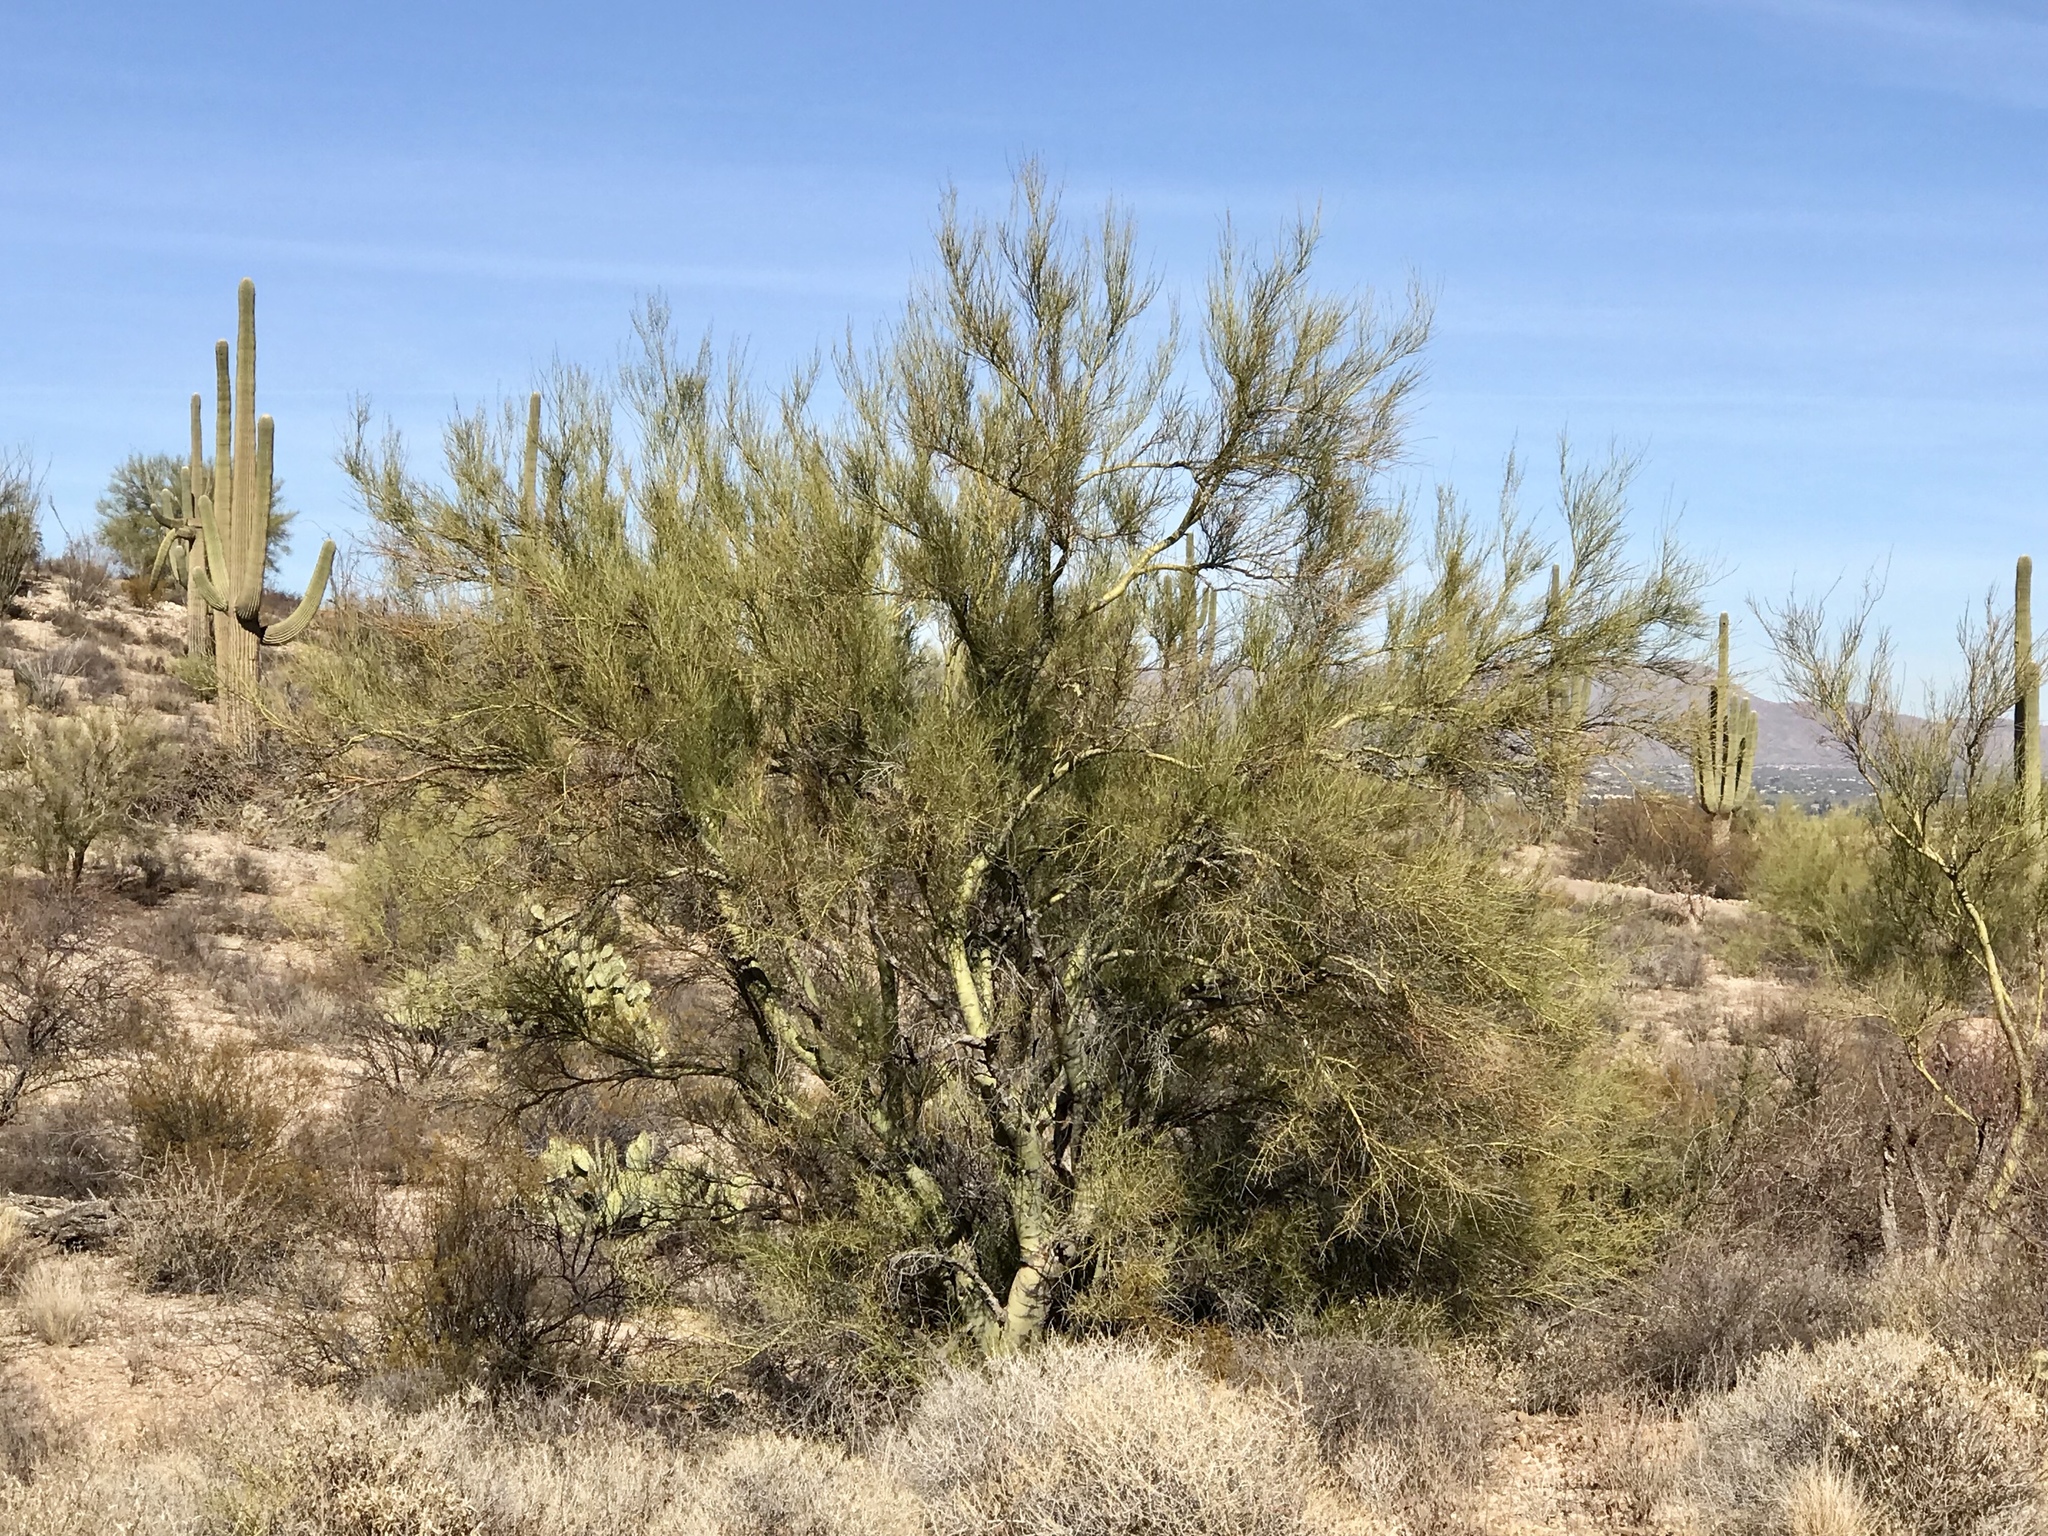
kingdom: Plantae
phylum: Tracheophyta
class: Magnoliopsida
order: Fabales
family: Fabaceae
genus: Parkinsonia
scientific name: Parkinsonia microphylla
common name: Yellow paloverde
